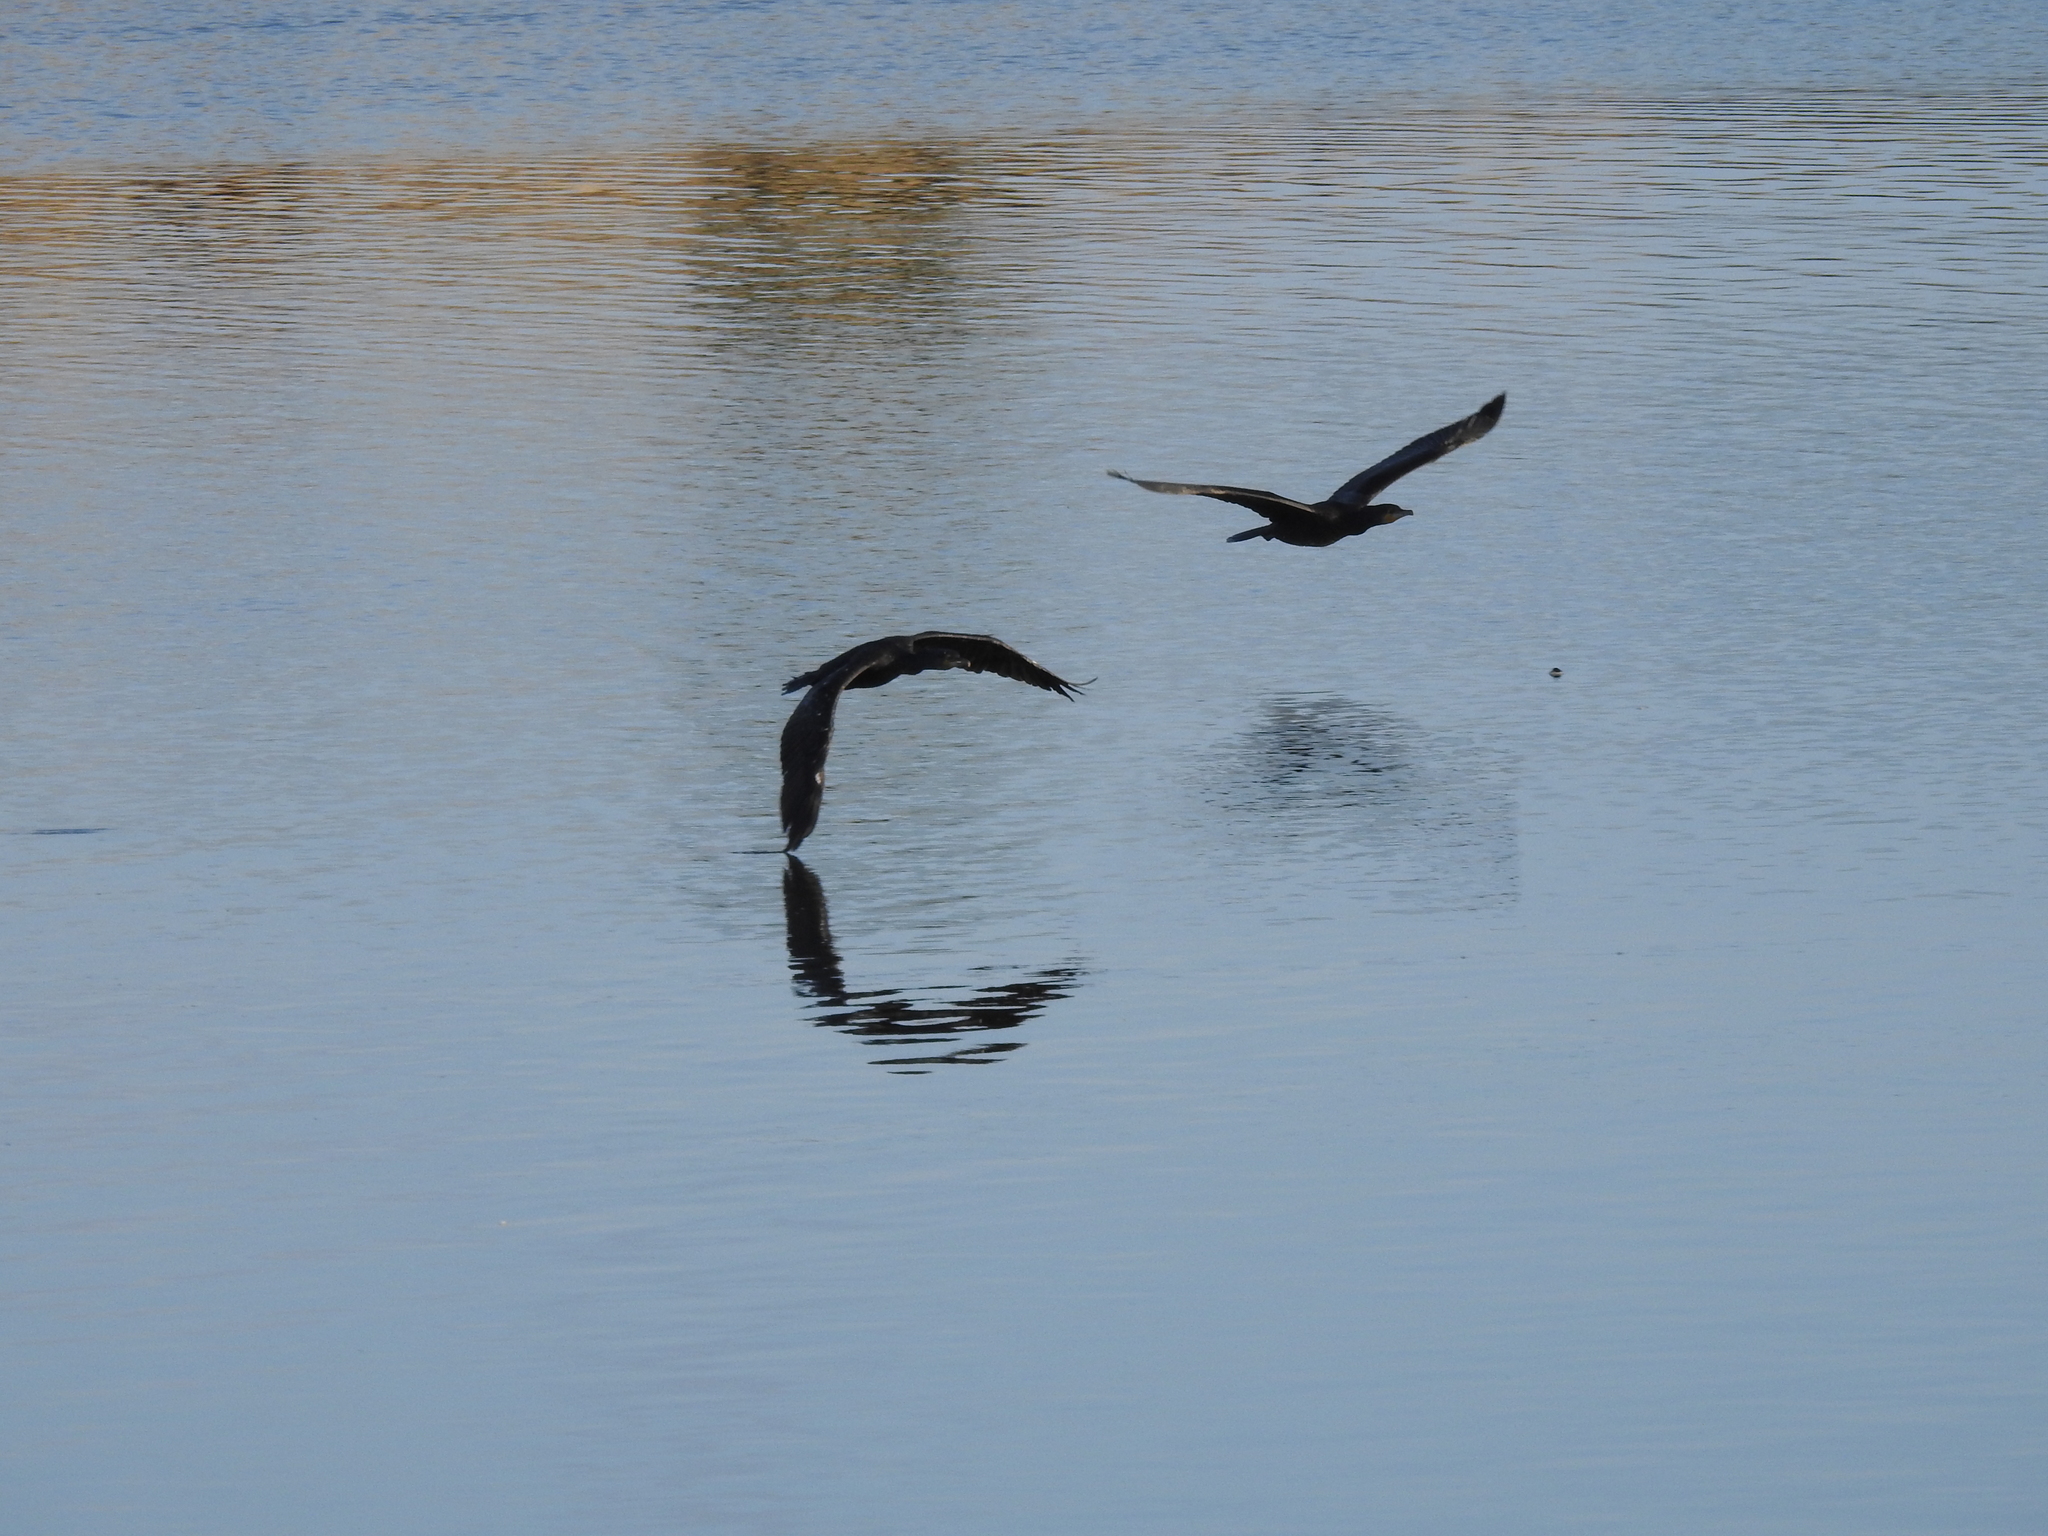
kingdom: Animalia
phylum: Chordata
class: Aves
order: Suliformes
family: Phalacrocoracidae
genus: Phalacrocorax
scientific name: Phalacrocorax carbo
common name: Great cormorant
